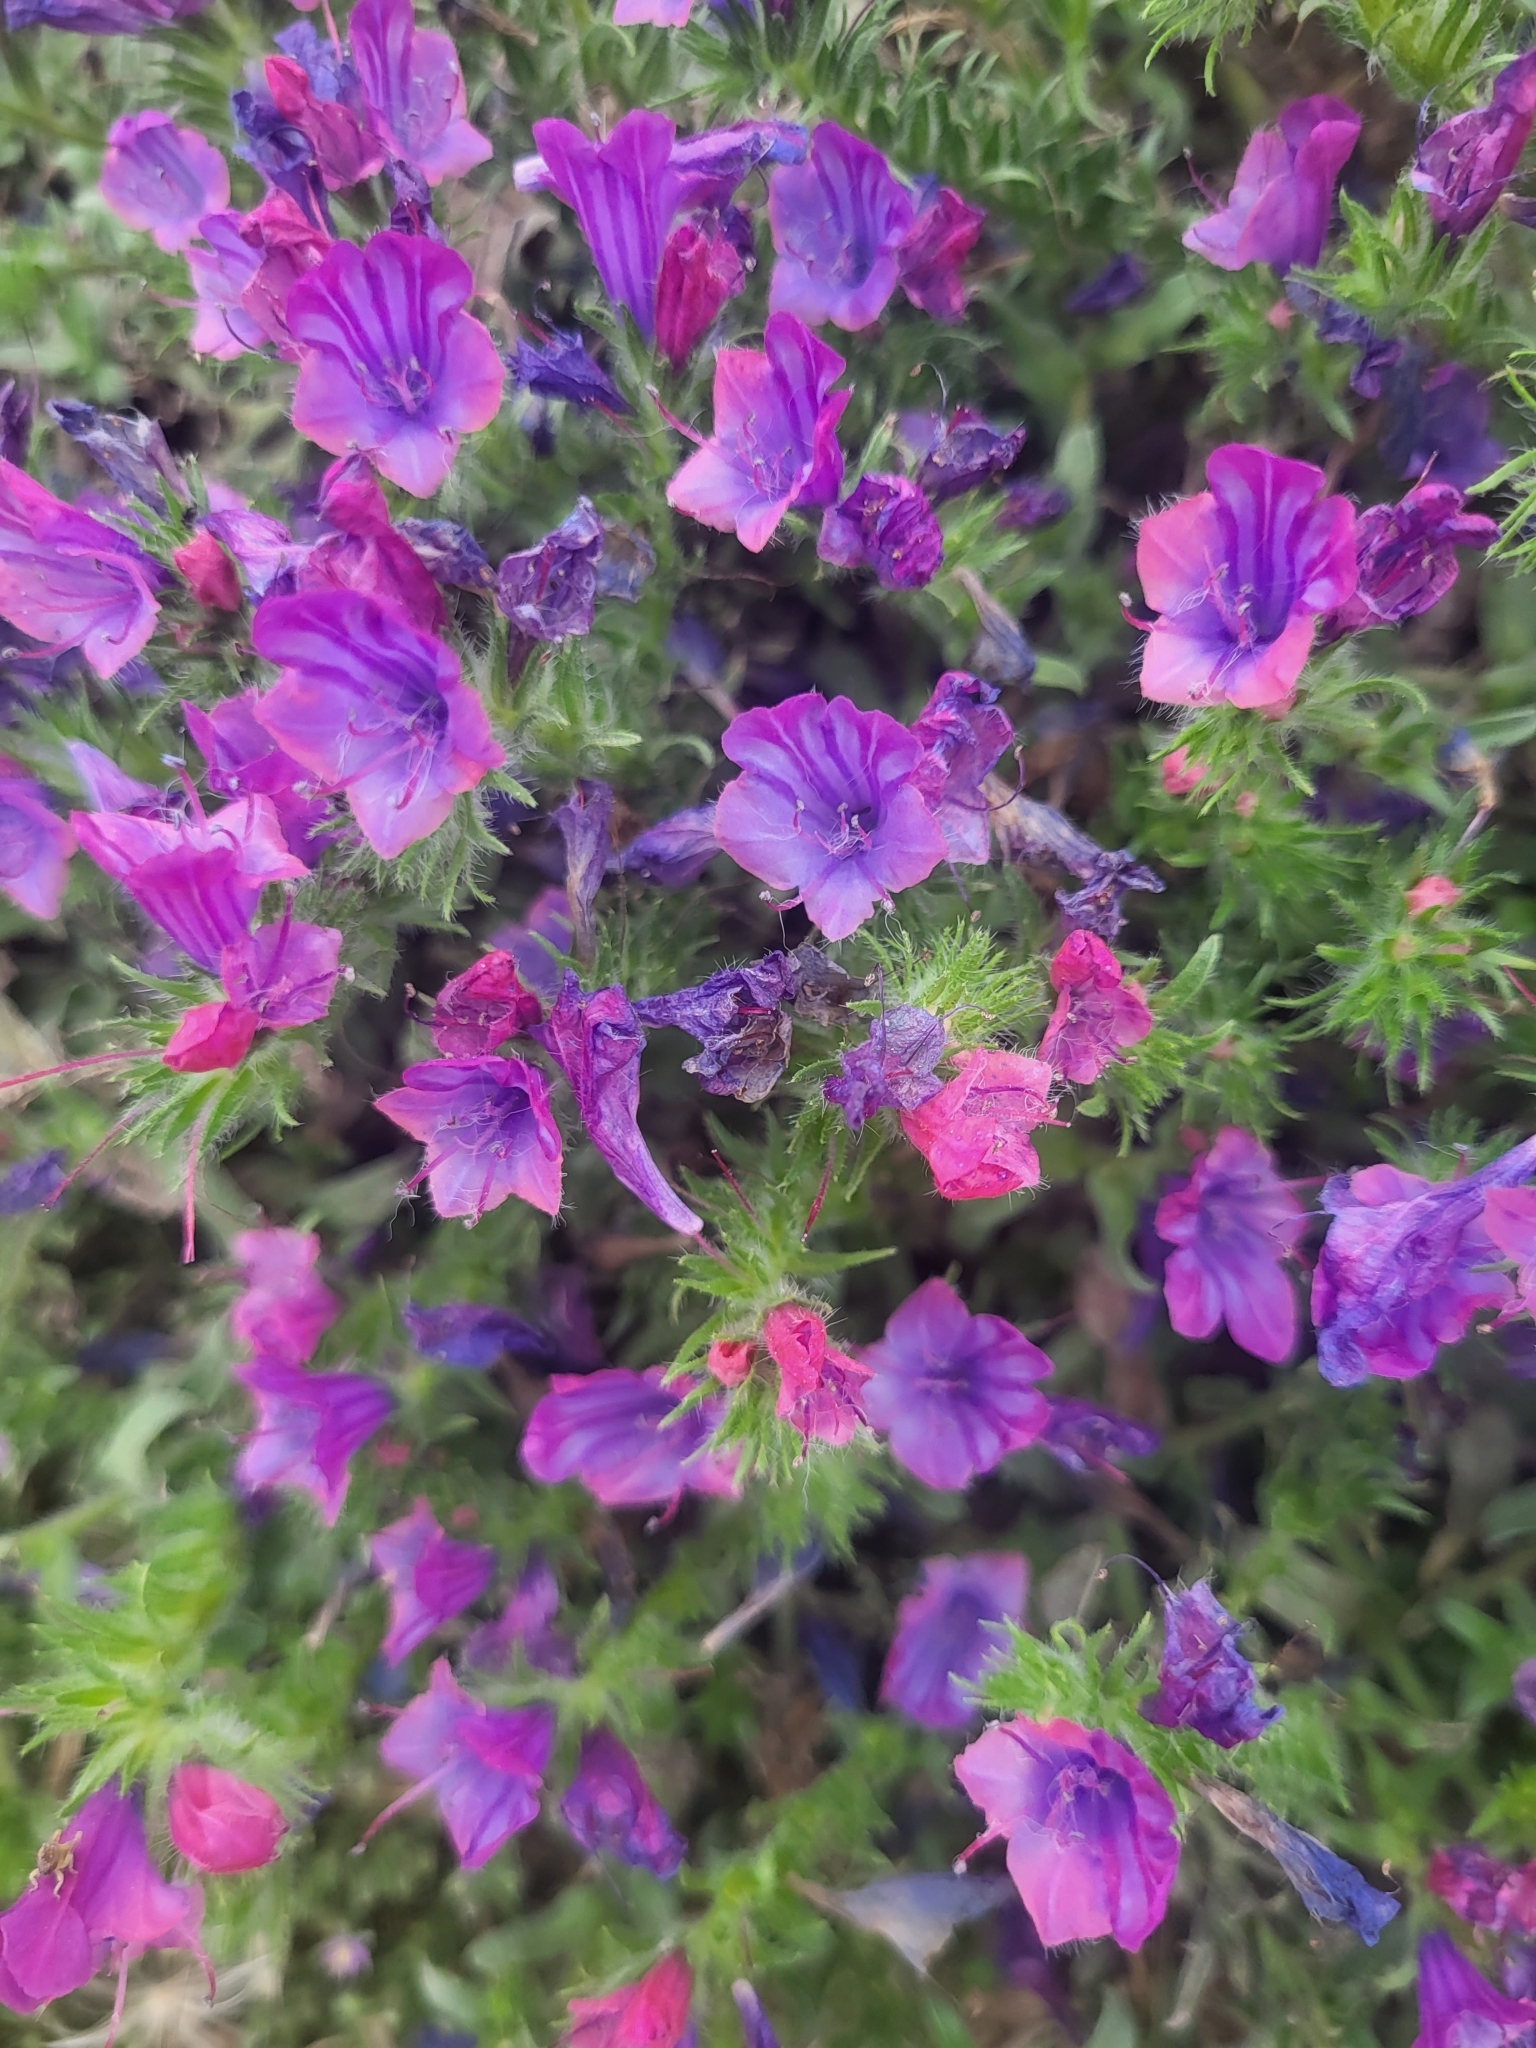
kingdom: Plantae
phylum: Tracheophyta
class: Magnoliopsida
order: Boraginales
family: Boraginaceae
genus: Echium
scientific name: Echium plantagineum
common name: Purple viper's-bugloss
